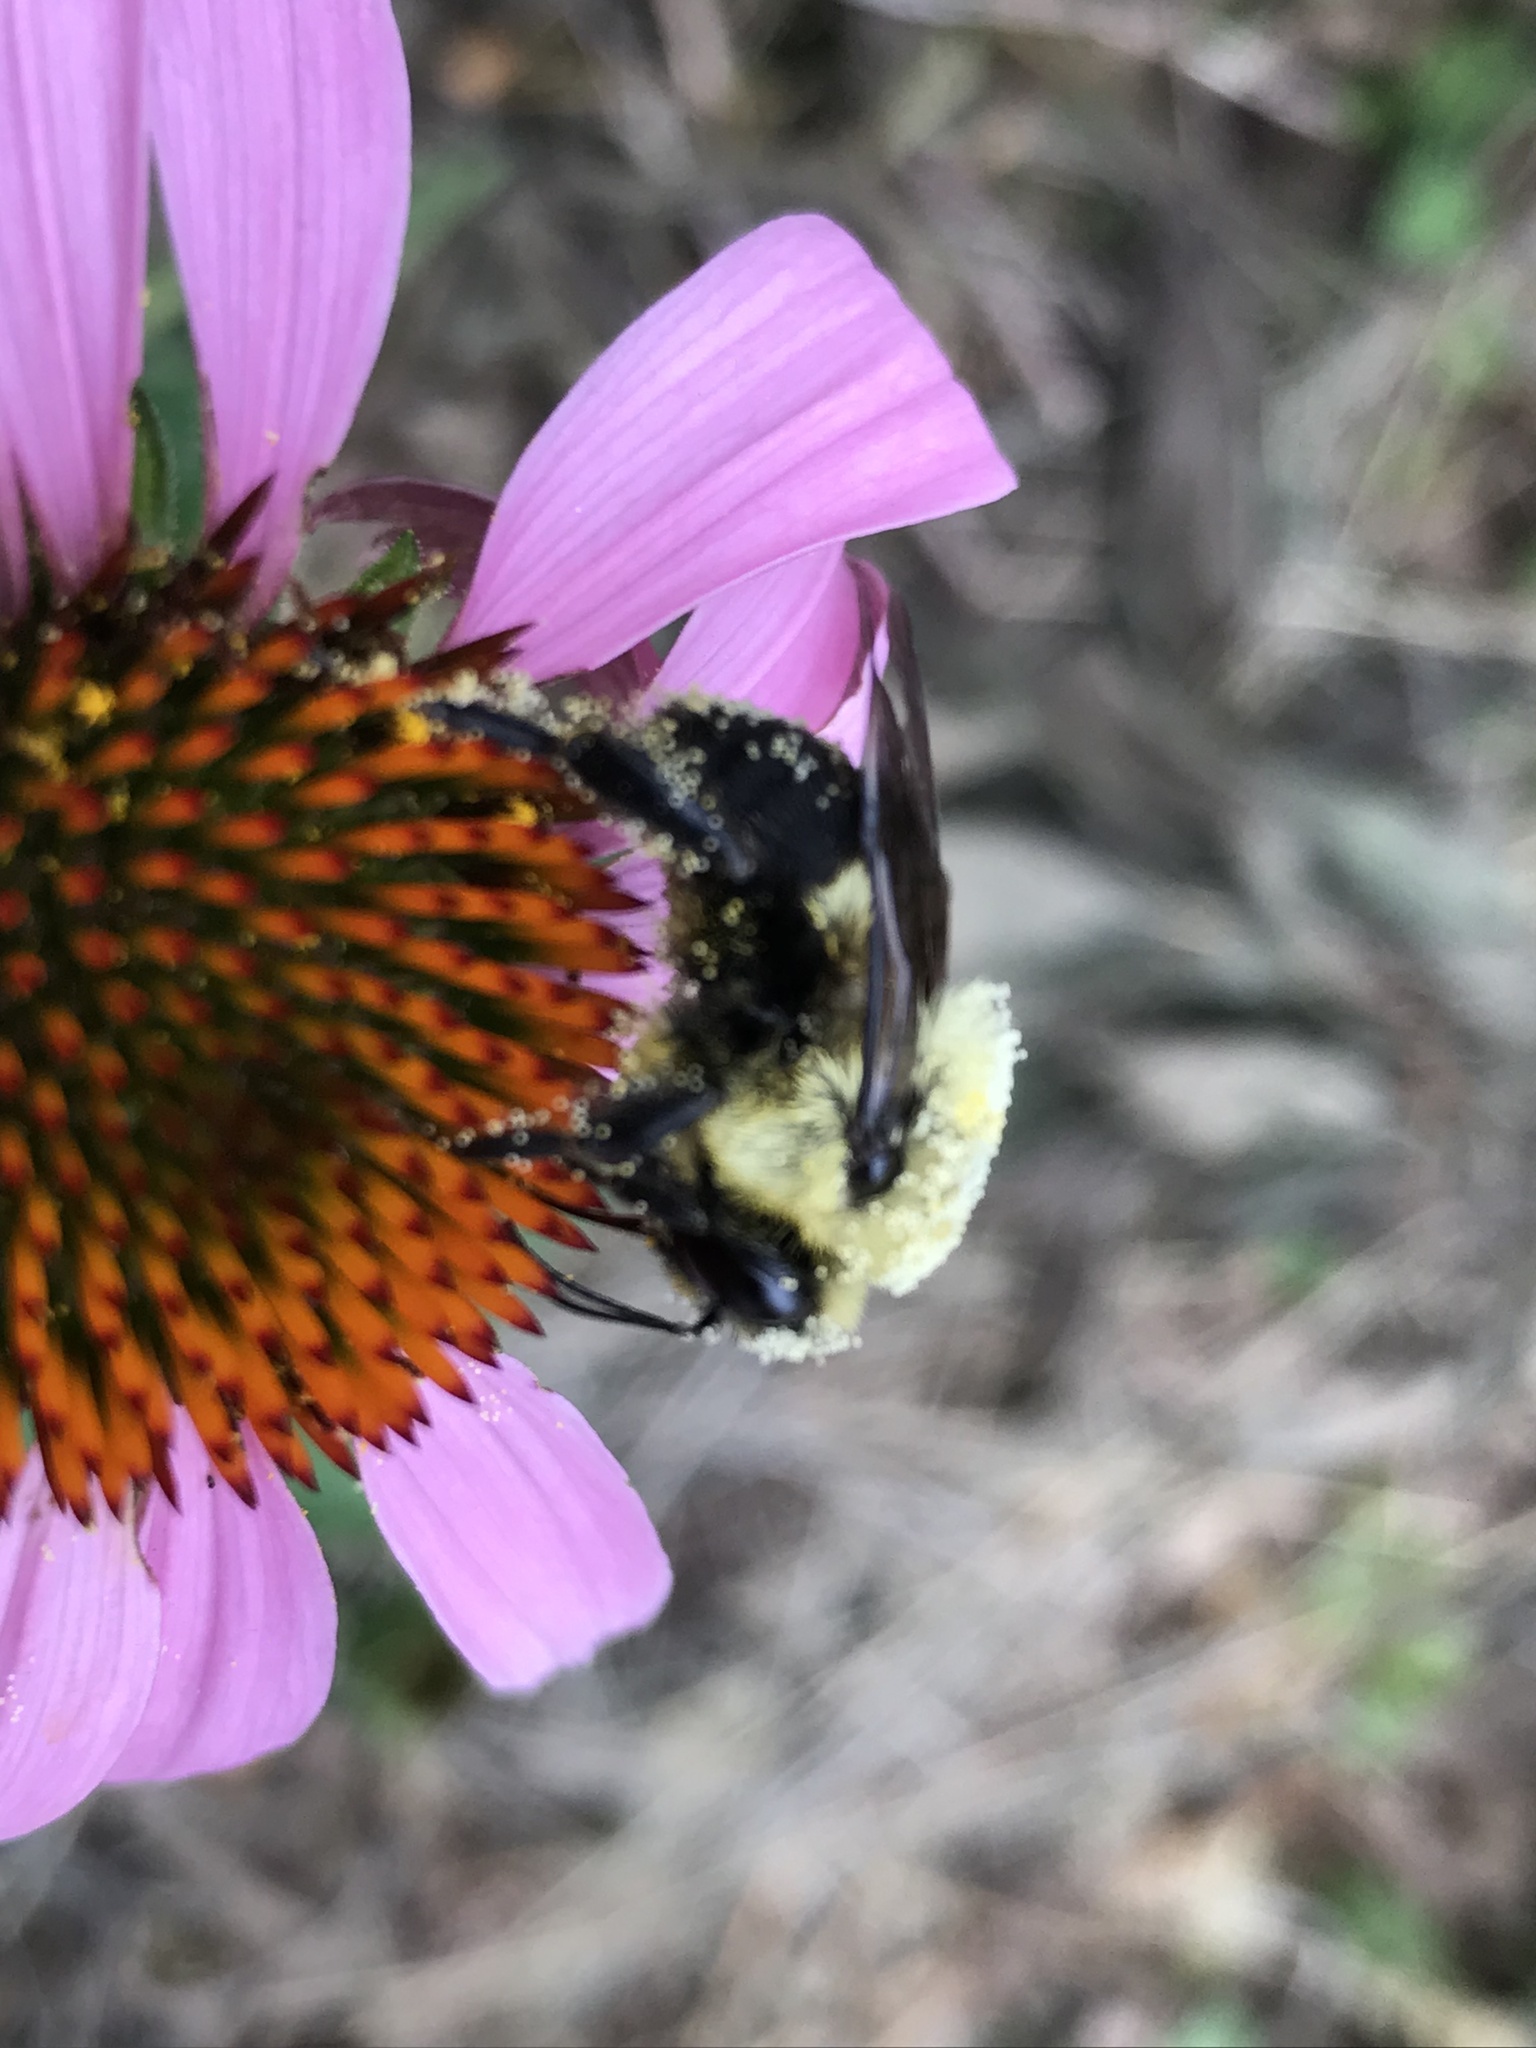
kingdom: Animalia
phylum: Arthropoda
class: Insecta
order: Hymenoptera
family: Apidae
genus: Bombus
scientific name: Bombus griseocollis
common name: Brown-belted bumble bee
